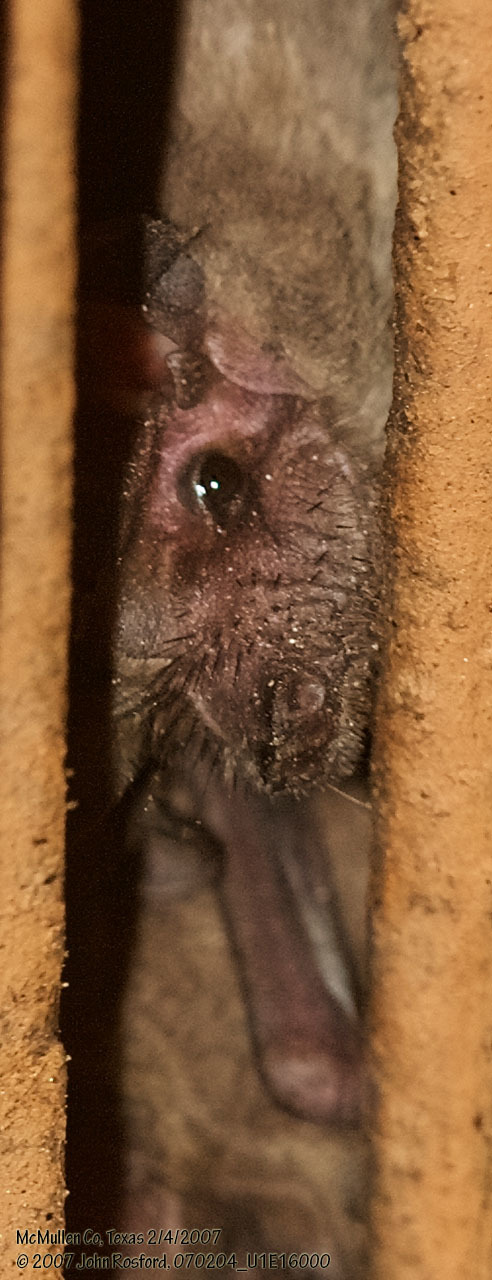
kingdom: Animalia
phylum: Chordata
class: Mammalia
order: Chiroptera
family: Molossidae
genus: Tadarida
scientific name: Tadarida brasiliensis
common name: Mexican free-tailed bat
